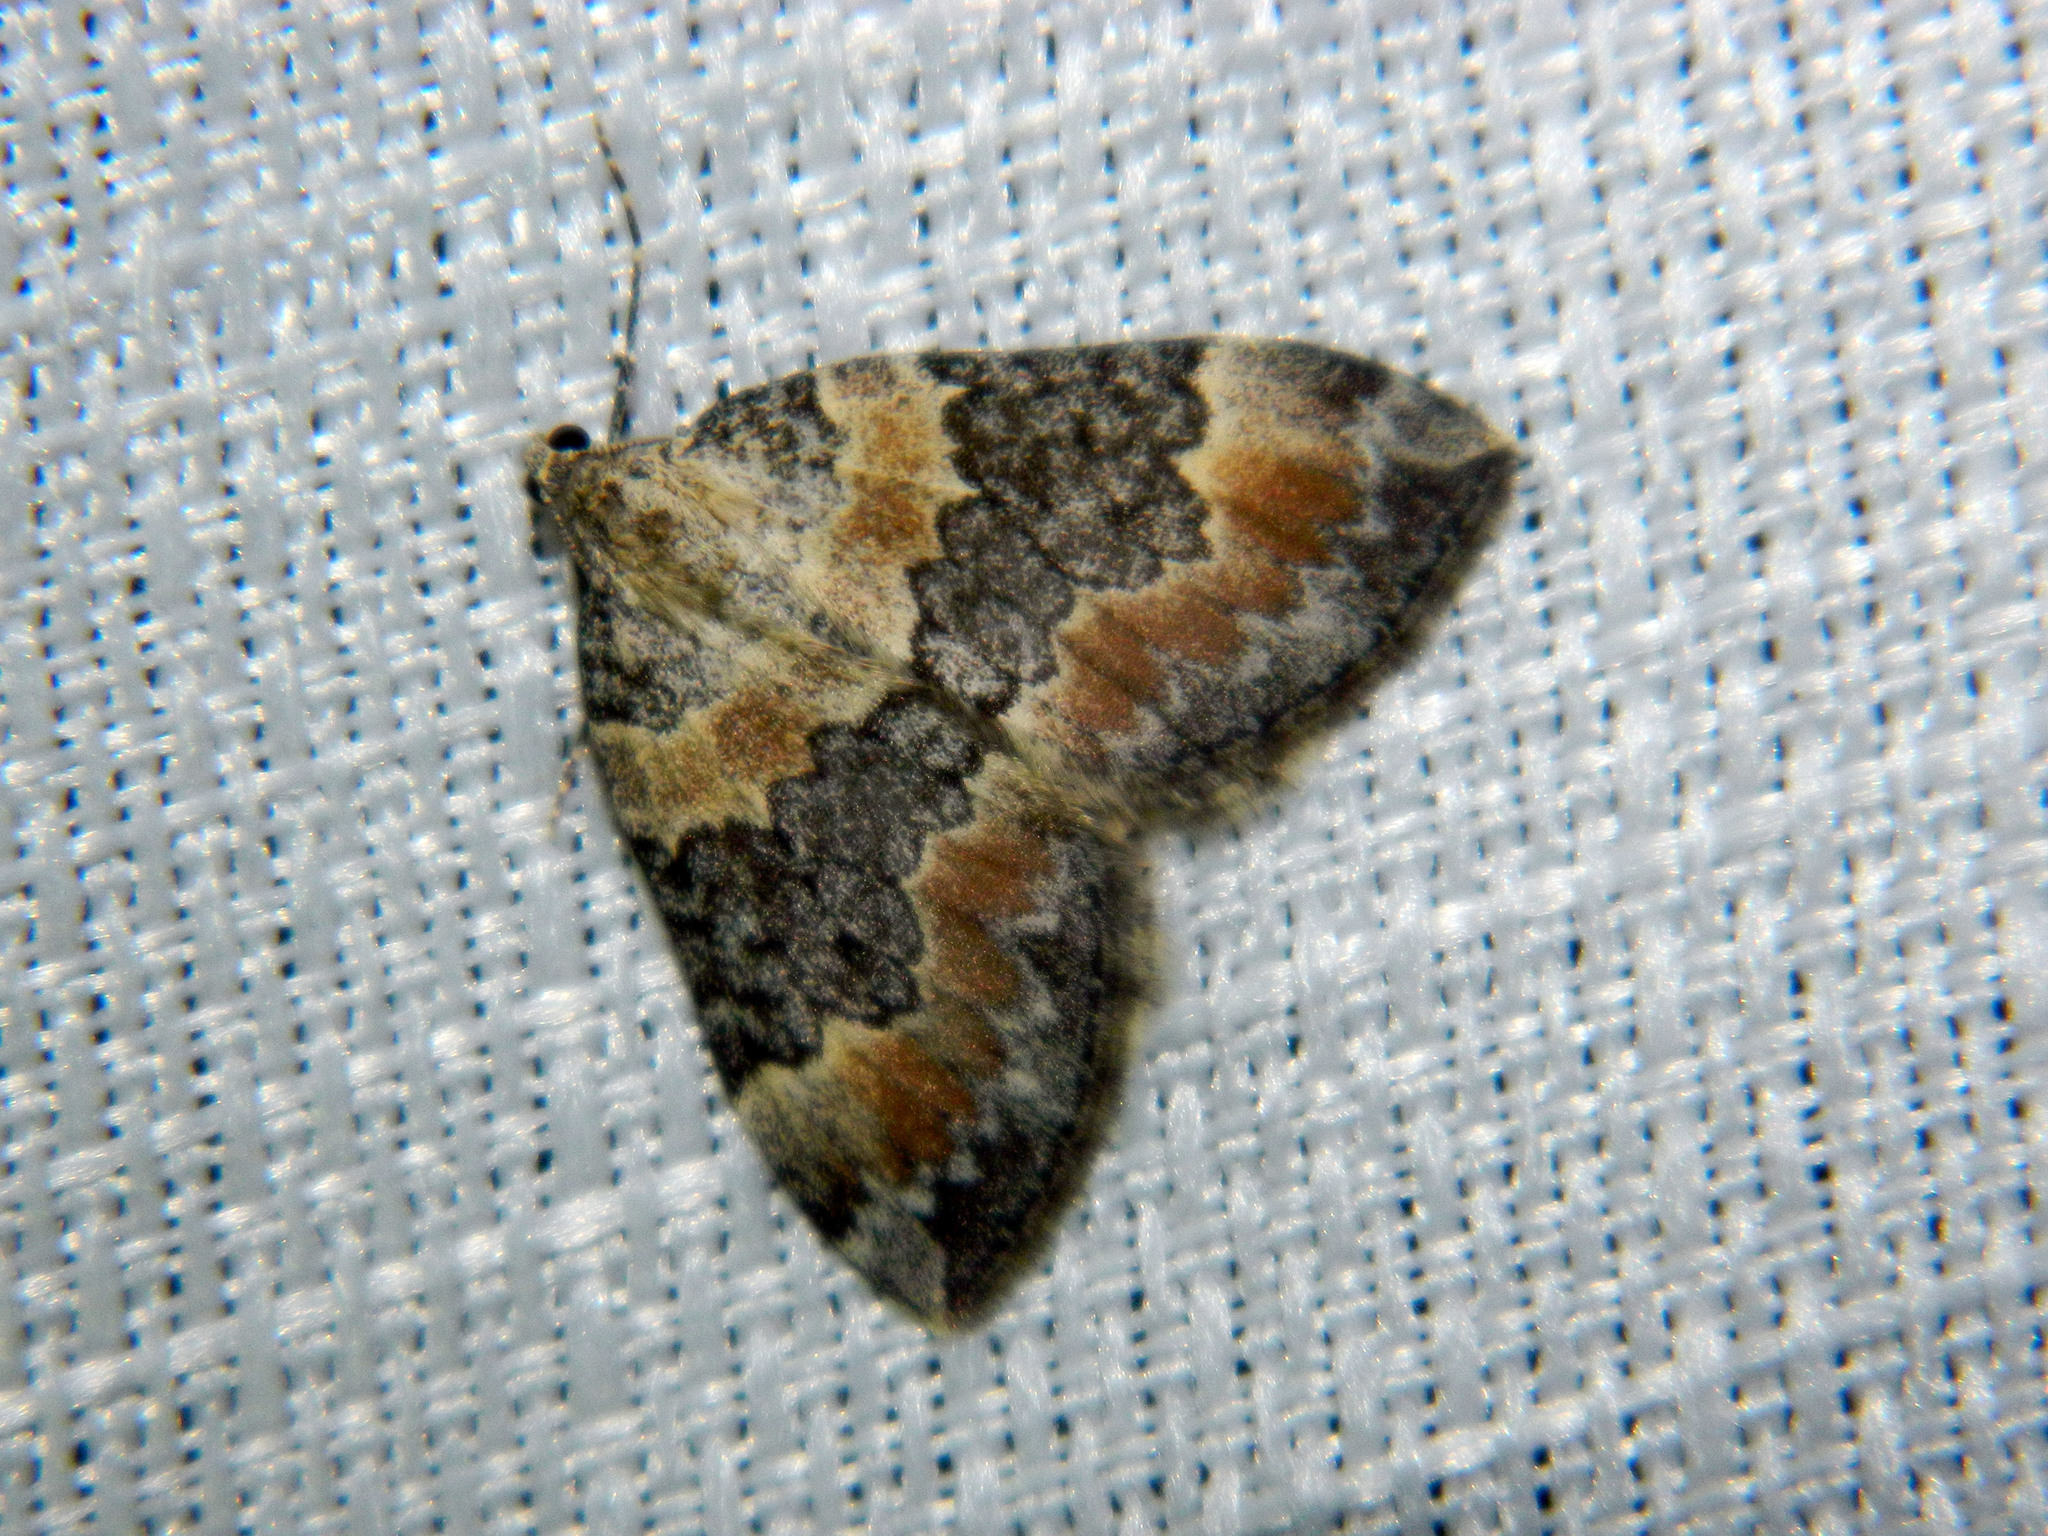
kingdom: Animalia
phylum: Arthropoda
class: Insecta
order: Lepidoptera
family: Geometridae
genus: Dysstroma
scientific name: Dysstroma brunneata
